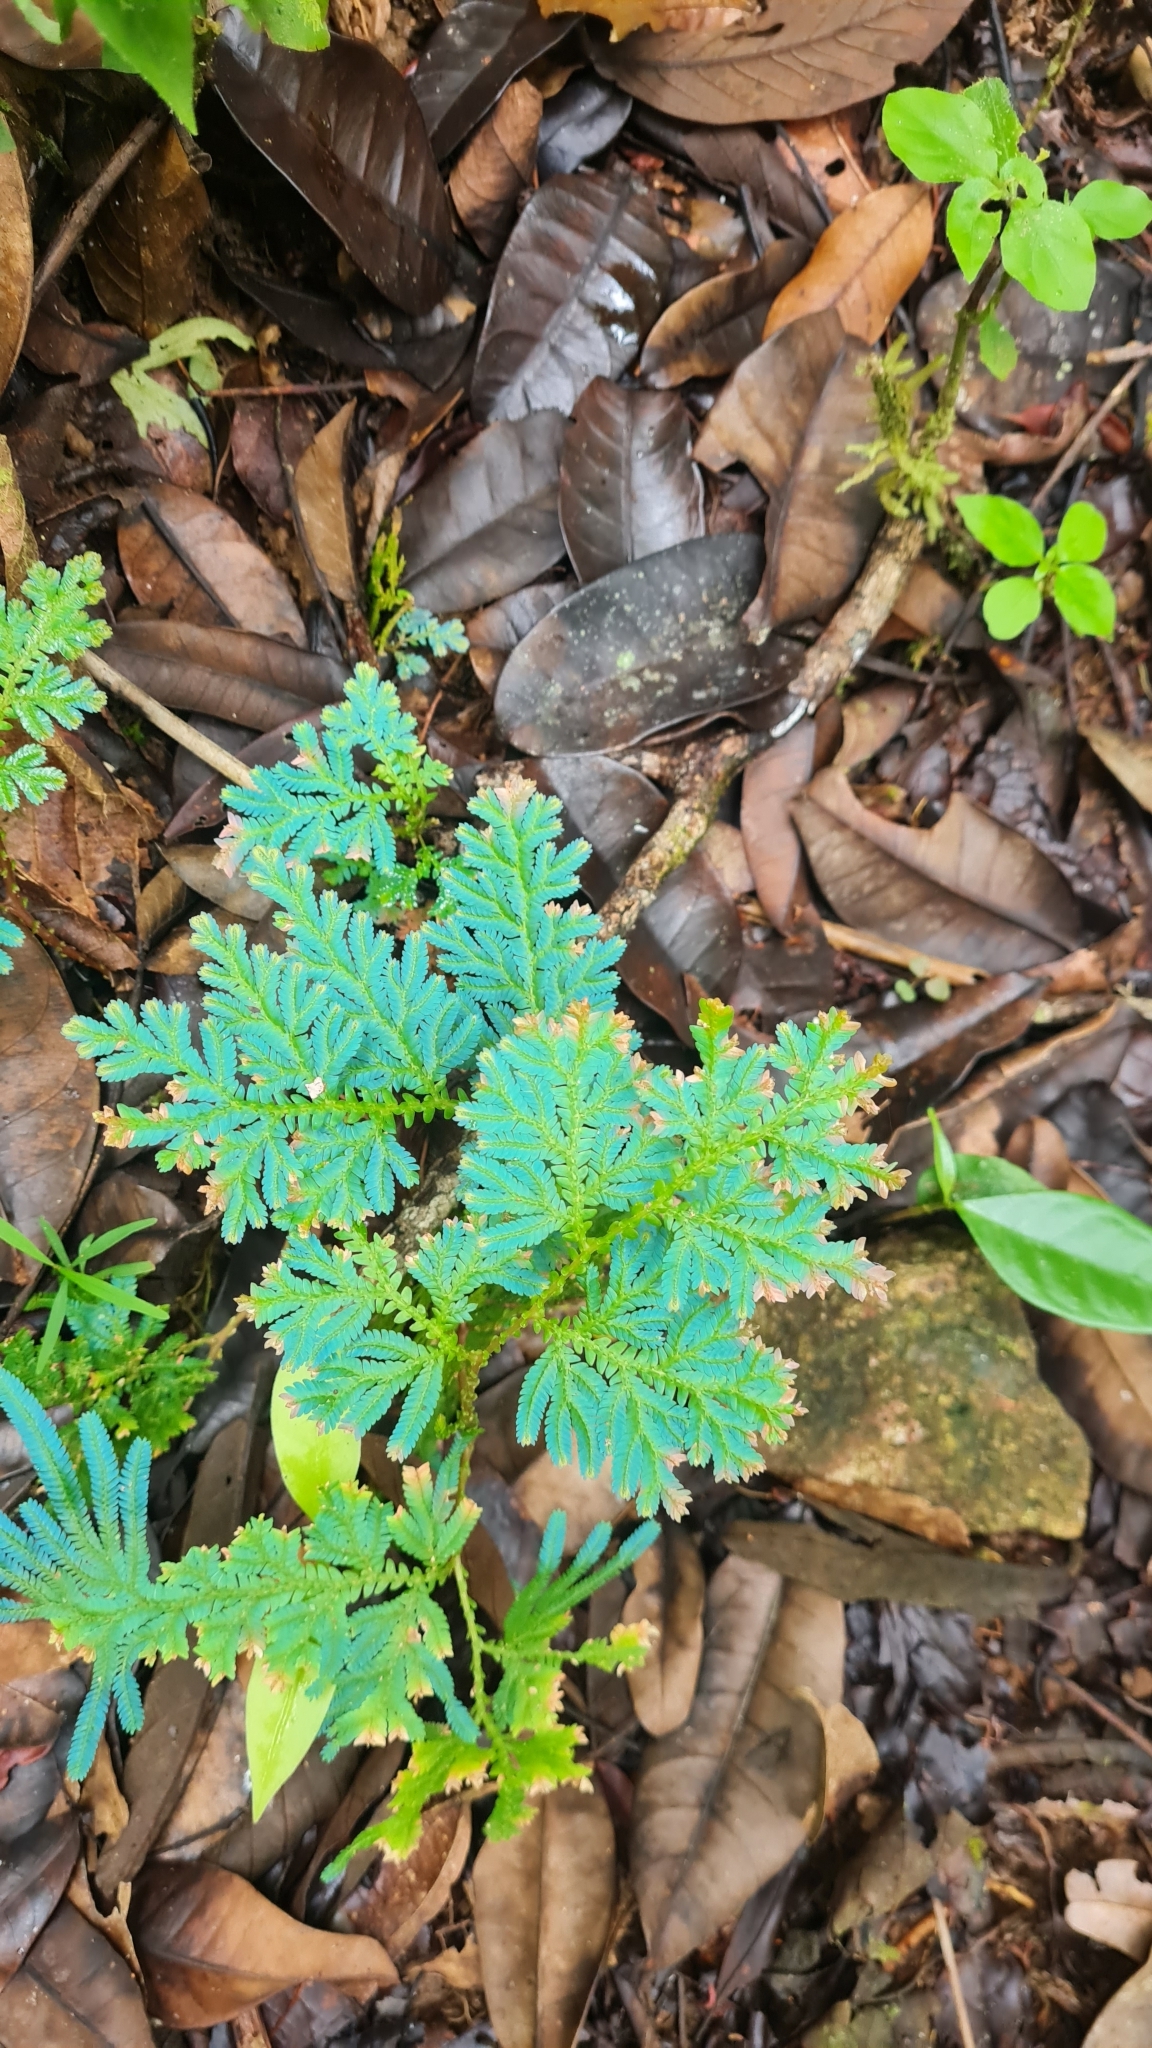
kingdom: Plantae
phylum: Tracheophyta
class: Lycopodiopsida
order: Selaginellales
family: Selaginellaceae
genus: Selaginella
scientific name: Selaginella willdenowii
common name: Willdenow's spikemoss
